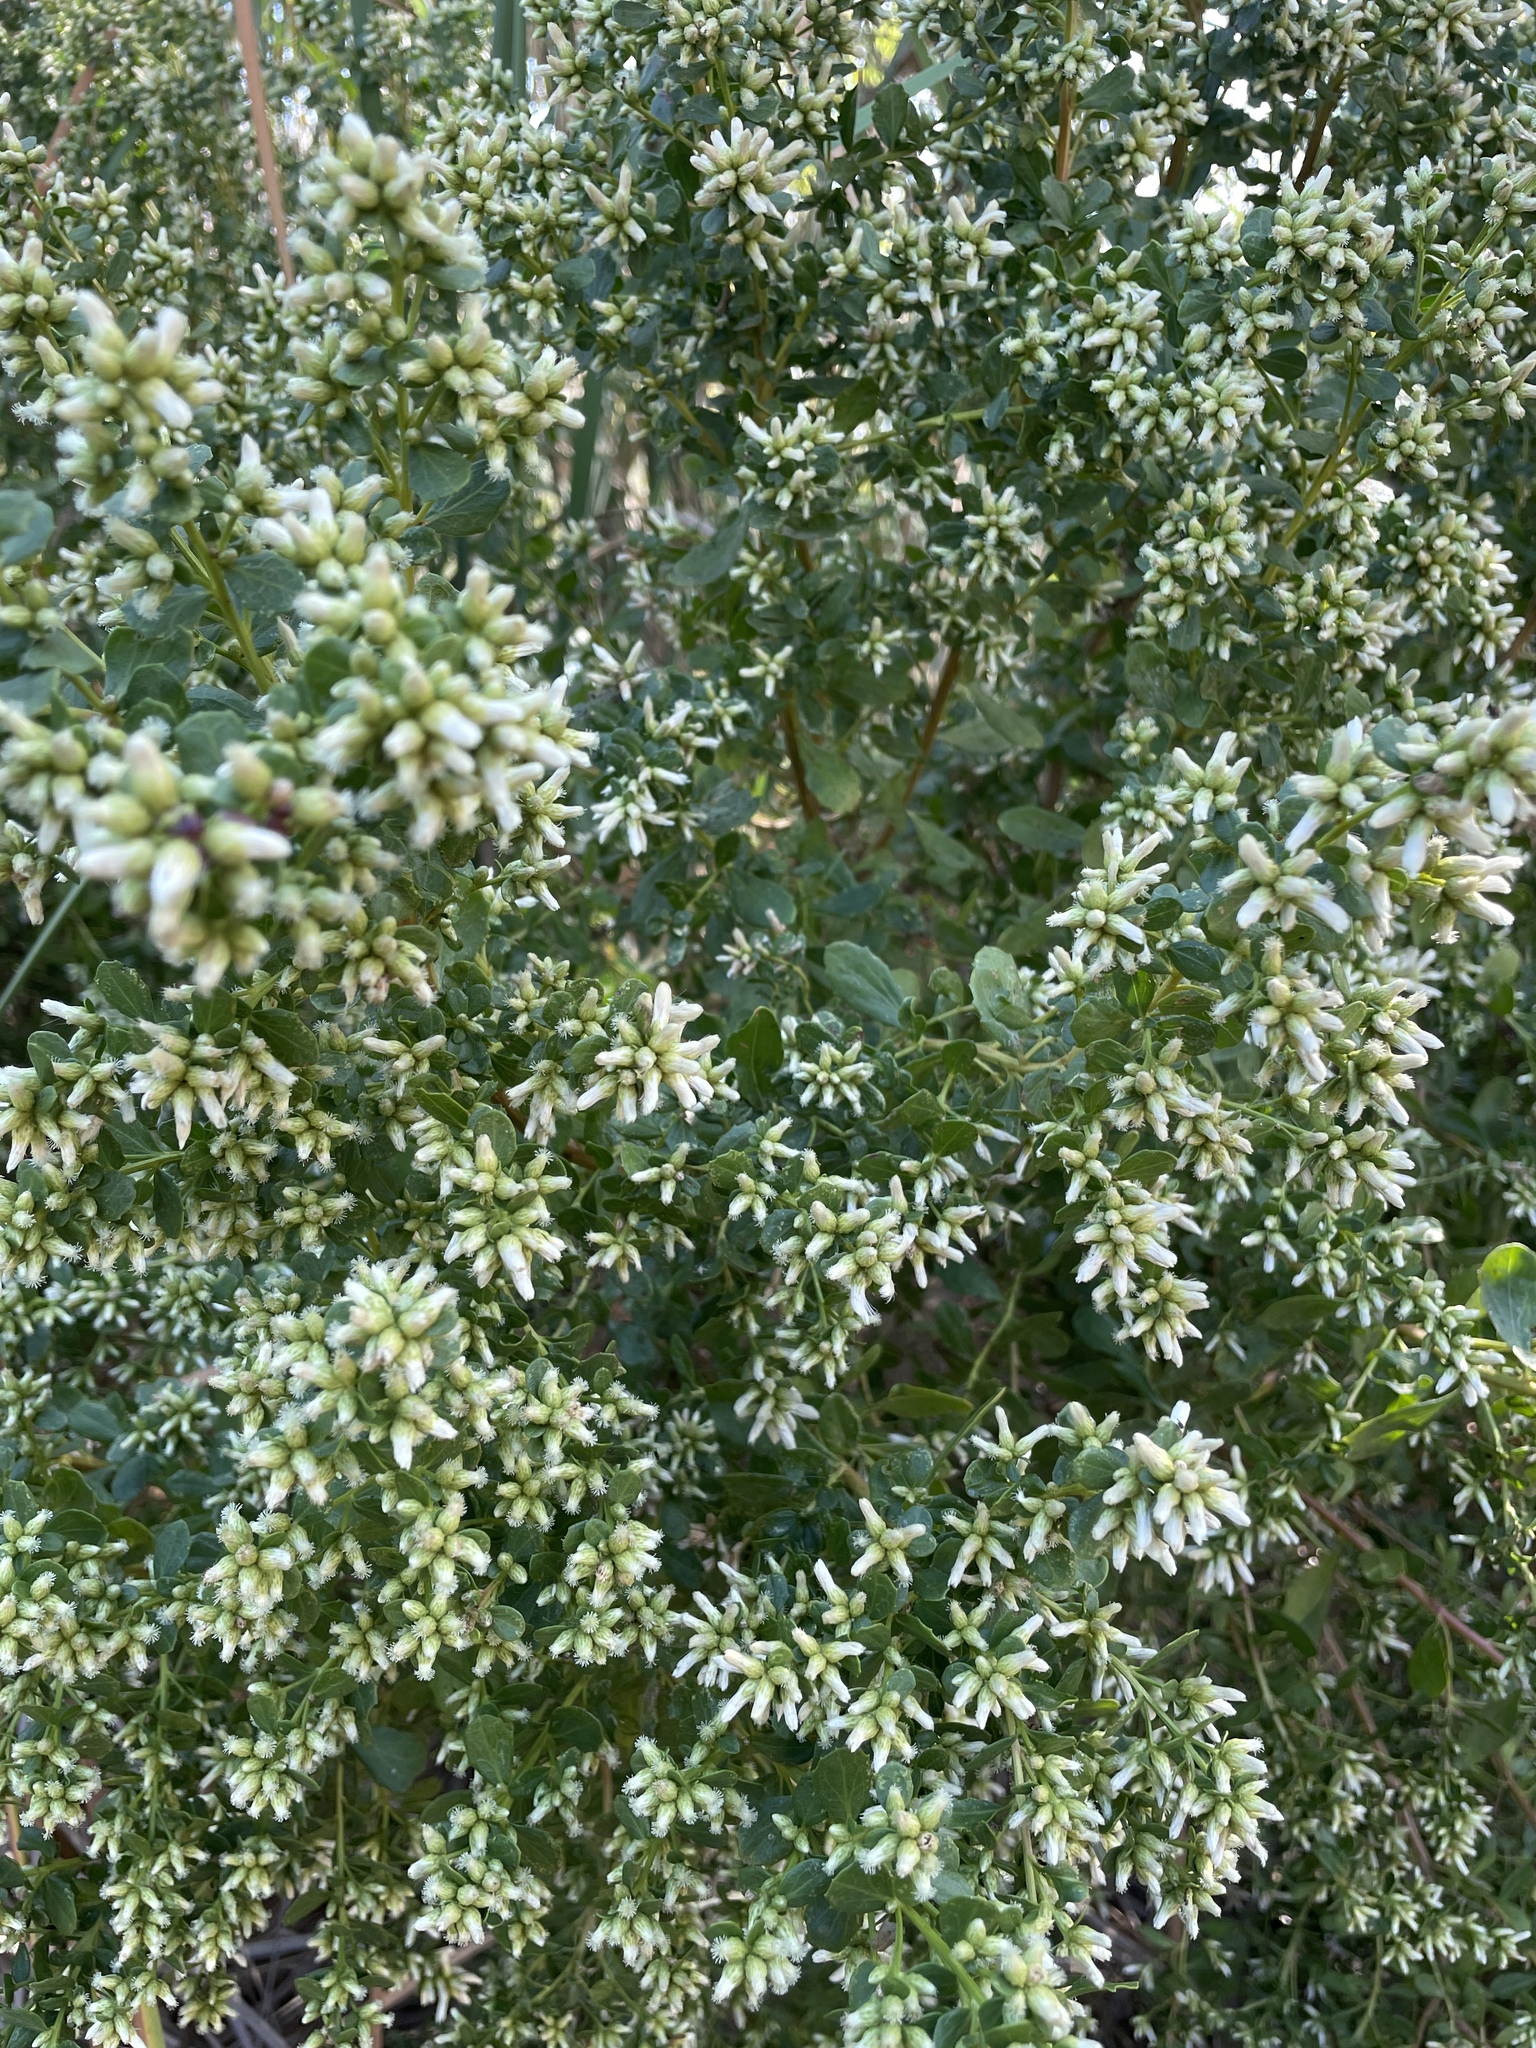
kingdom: Plantae
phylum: Tracheophyta
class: Magnoliopsida
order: Asterales
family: Asteraceae
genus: Baccharis
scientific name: Baccharis pilularis
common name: Coyotebrush
